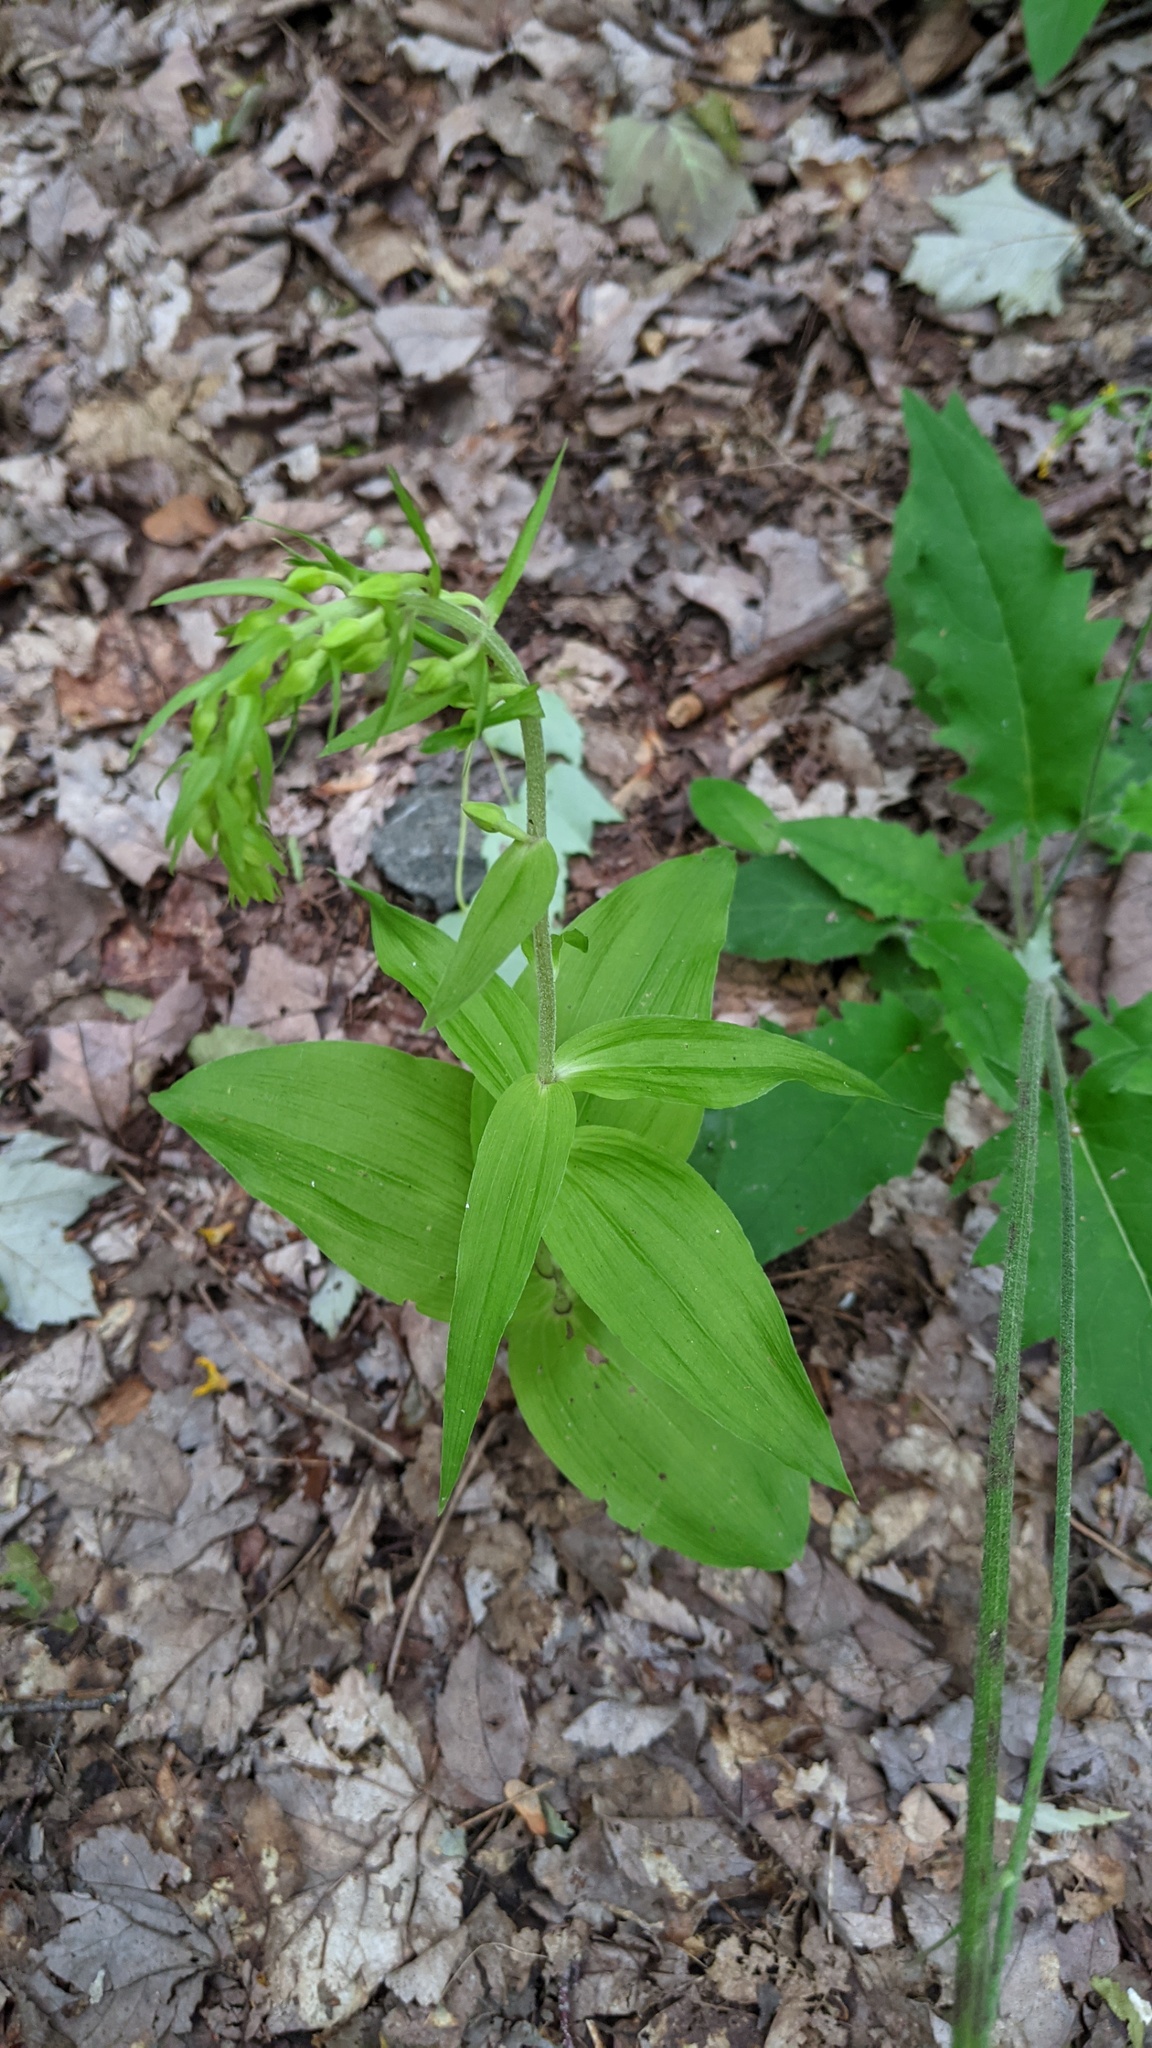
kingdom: Plantae
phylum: Tracheophyta
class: Liliopsida
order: Asparagales
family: Orchidaceae
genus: Epipactis
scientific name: Epipactis helleborine
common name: Broad-leaved helleborine
